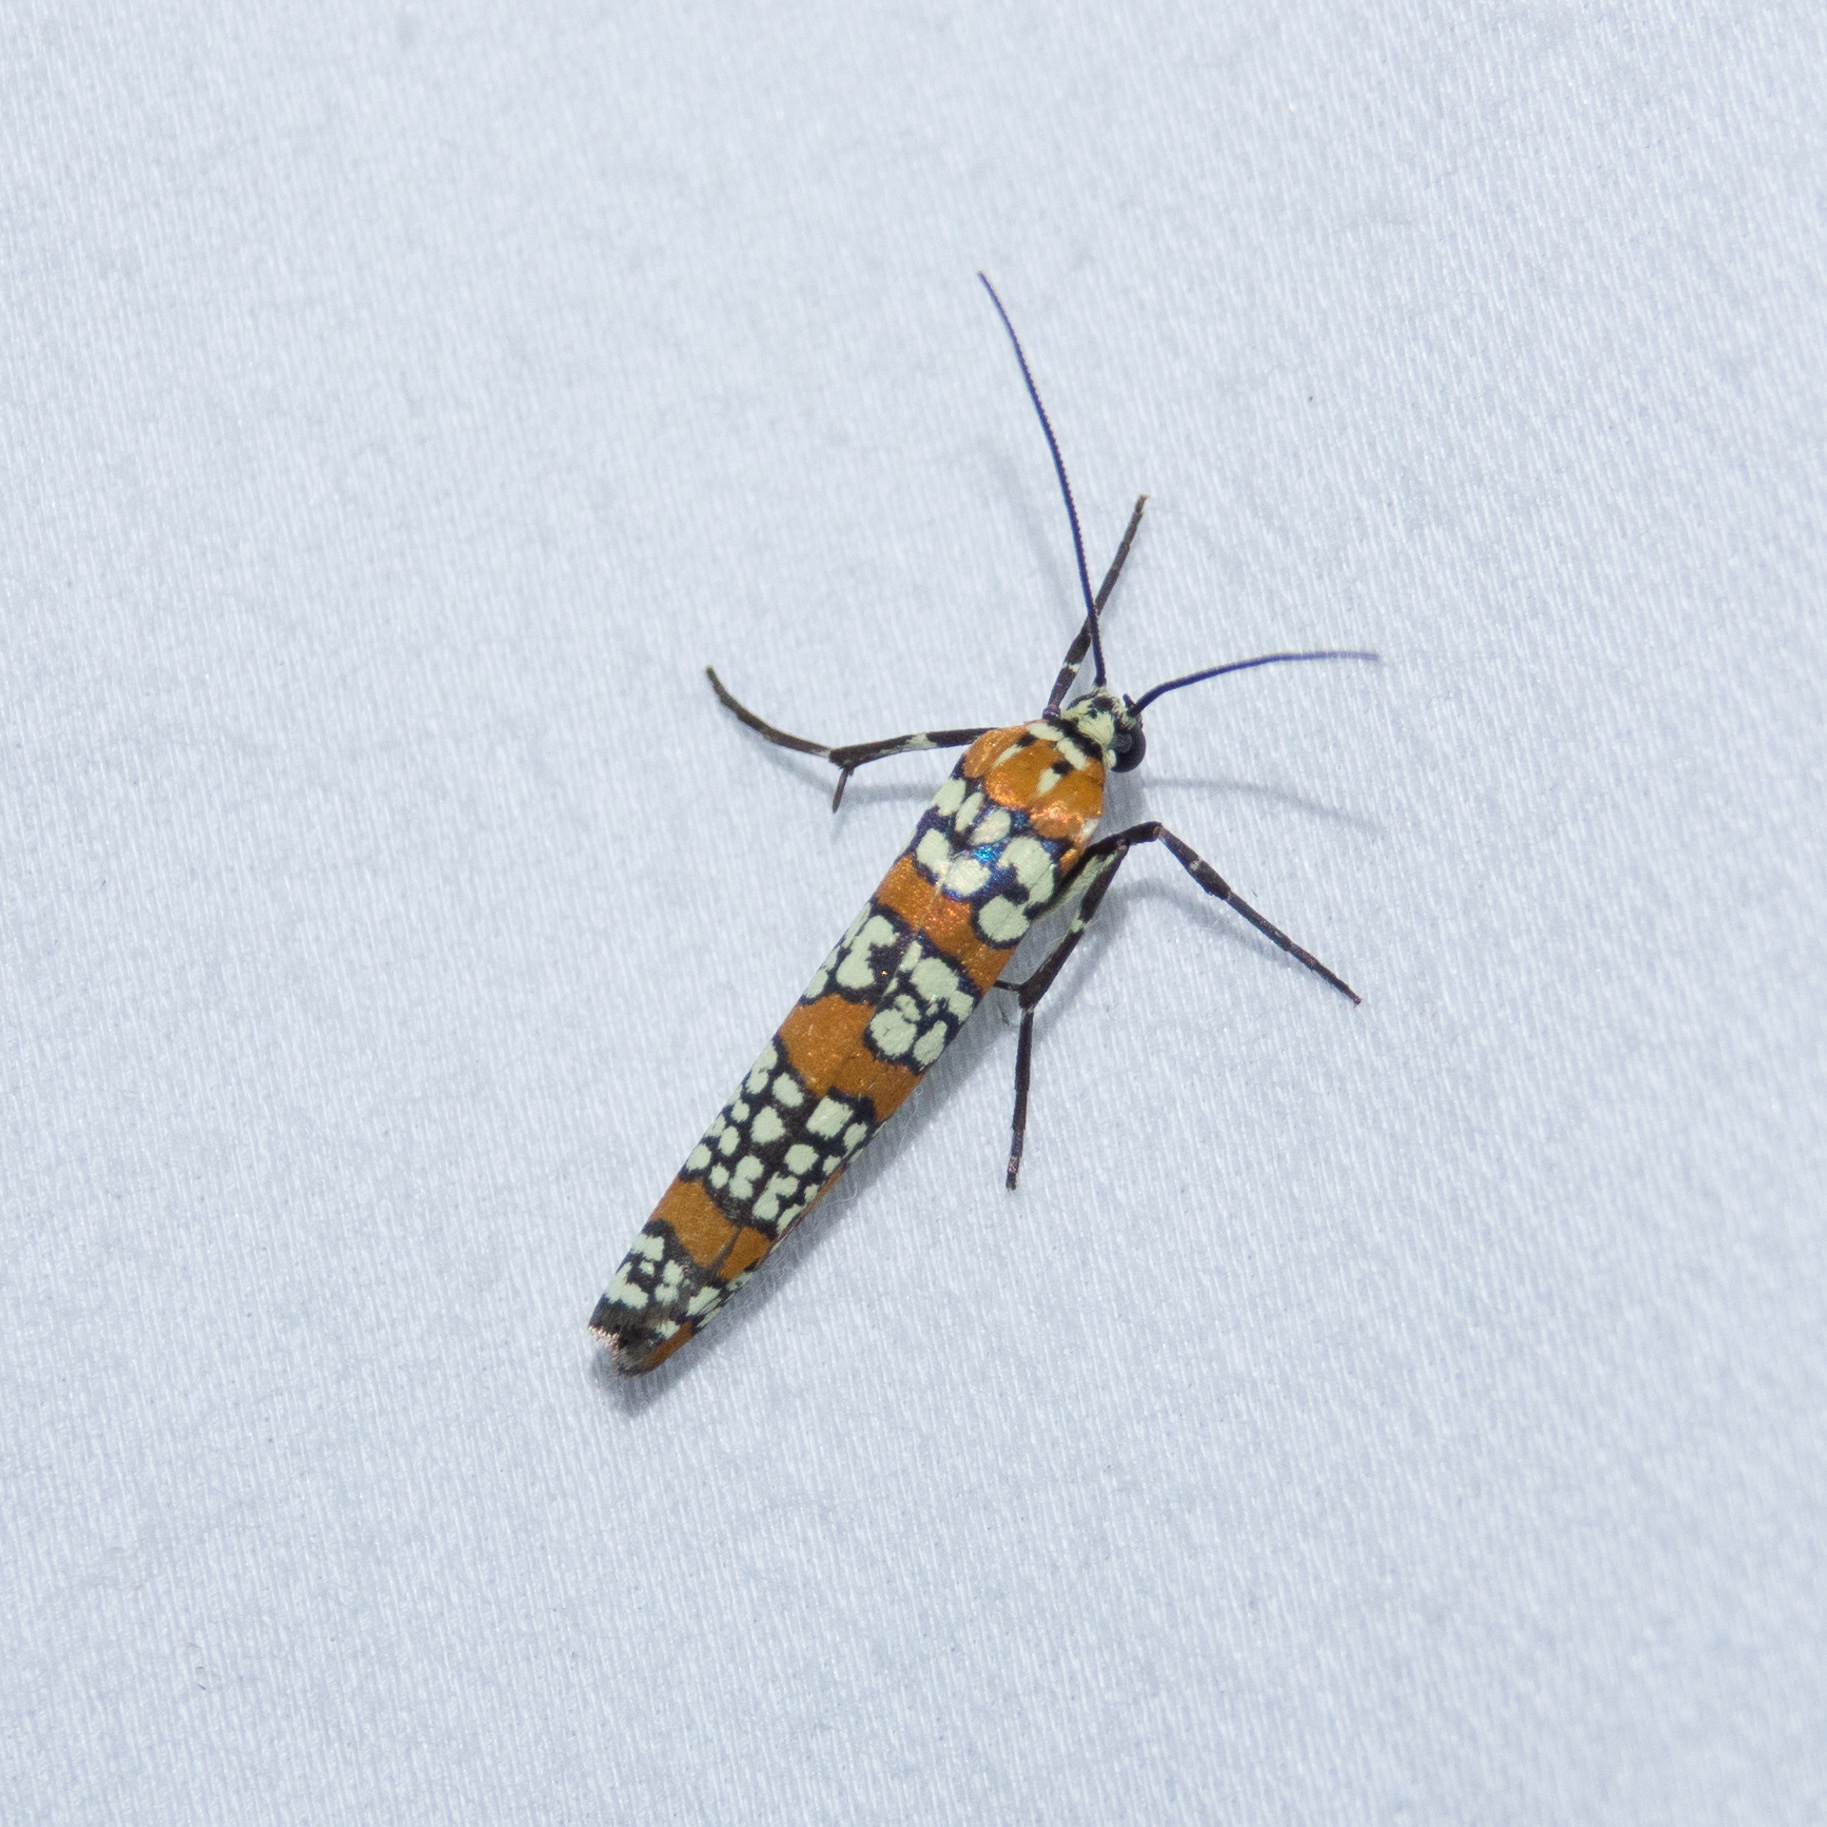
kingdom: Animalia
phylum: Arthropoda
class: Insecta
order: Lepidoptera
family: Attevidae
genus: Atteva
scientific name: Atteva punctella
